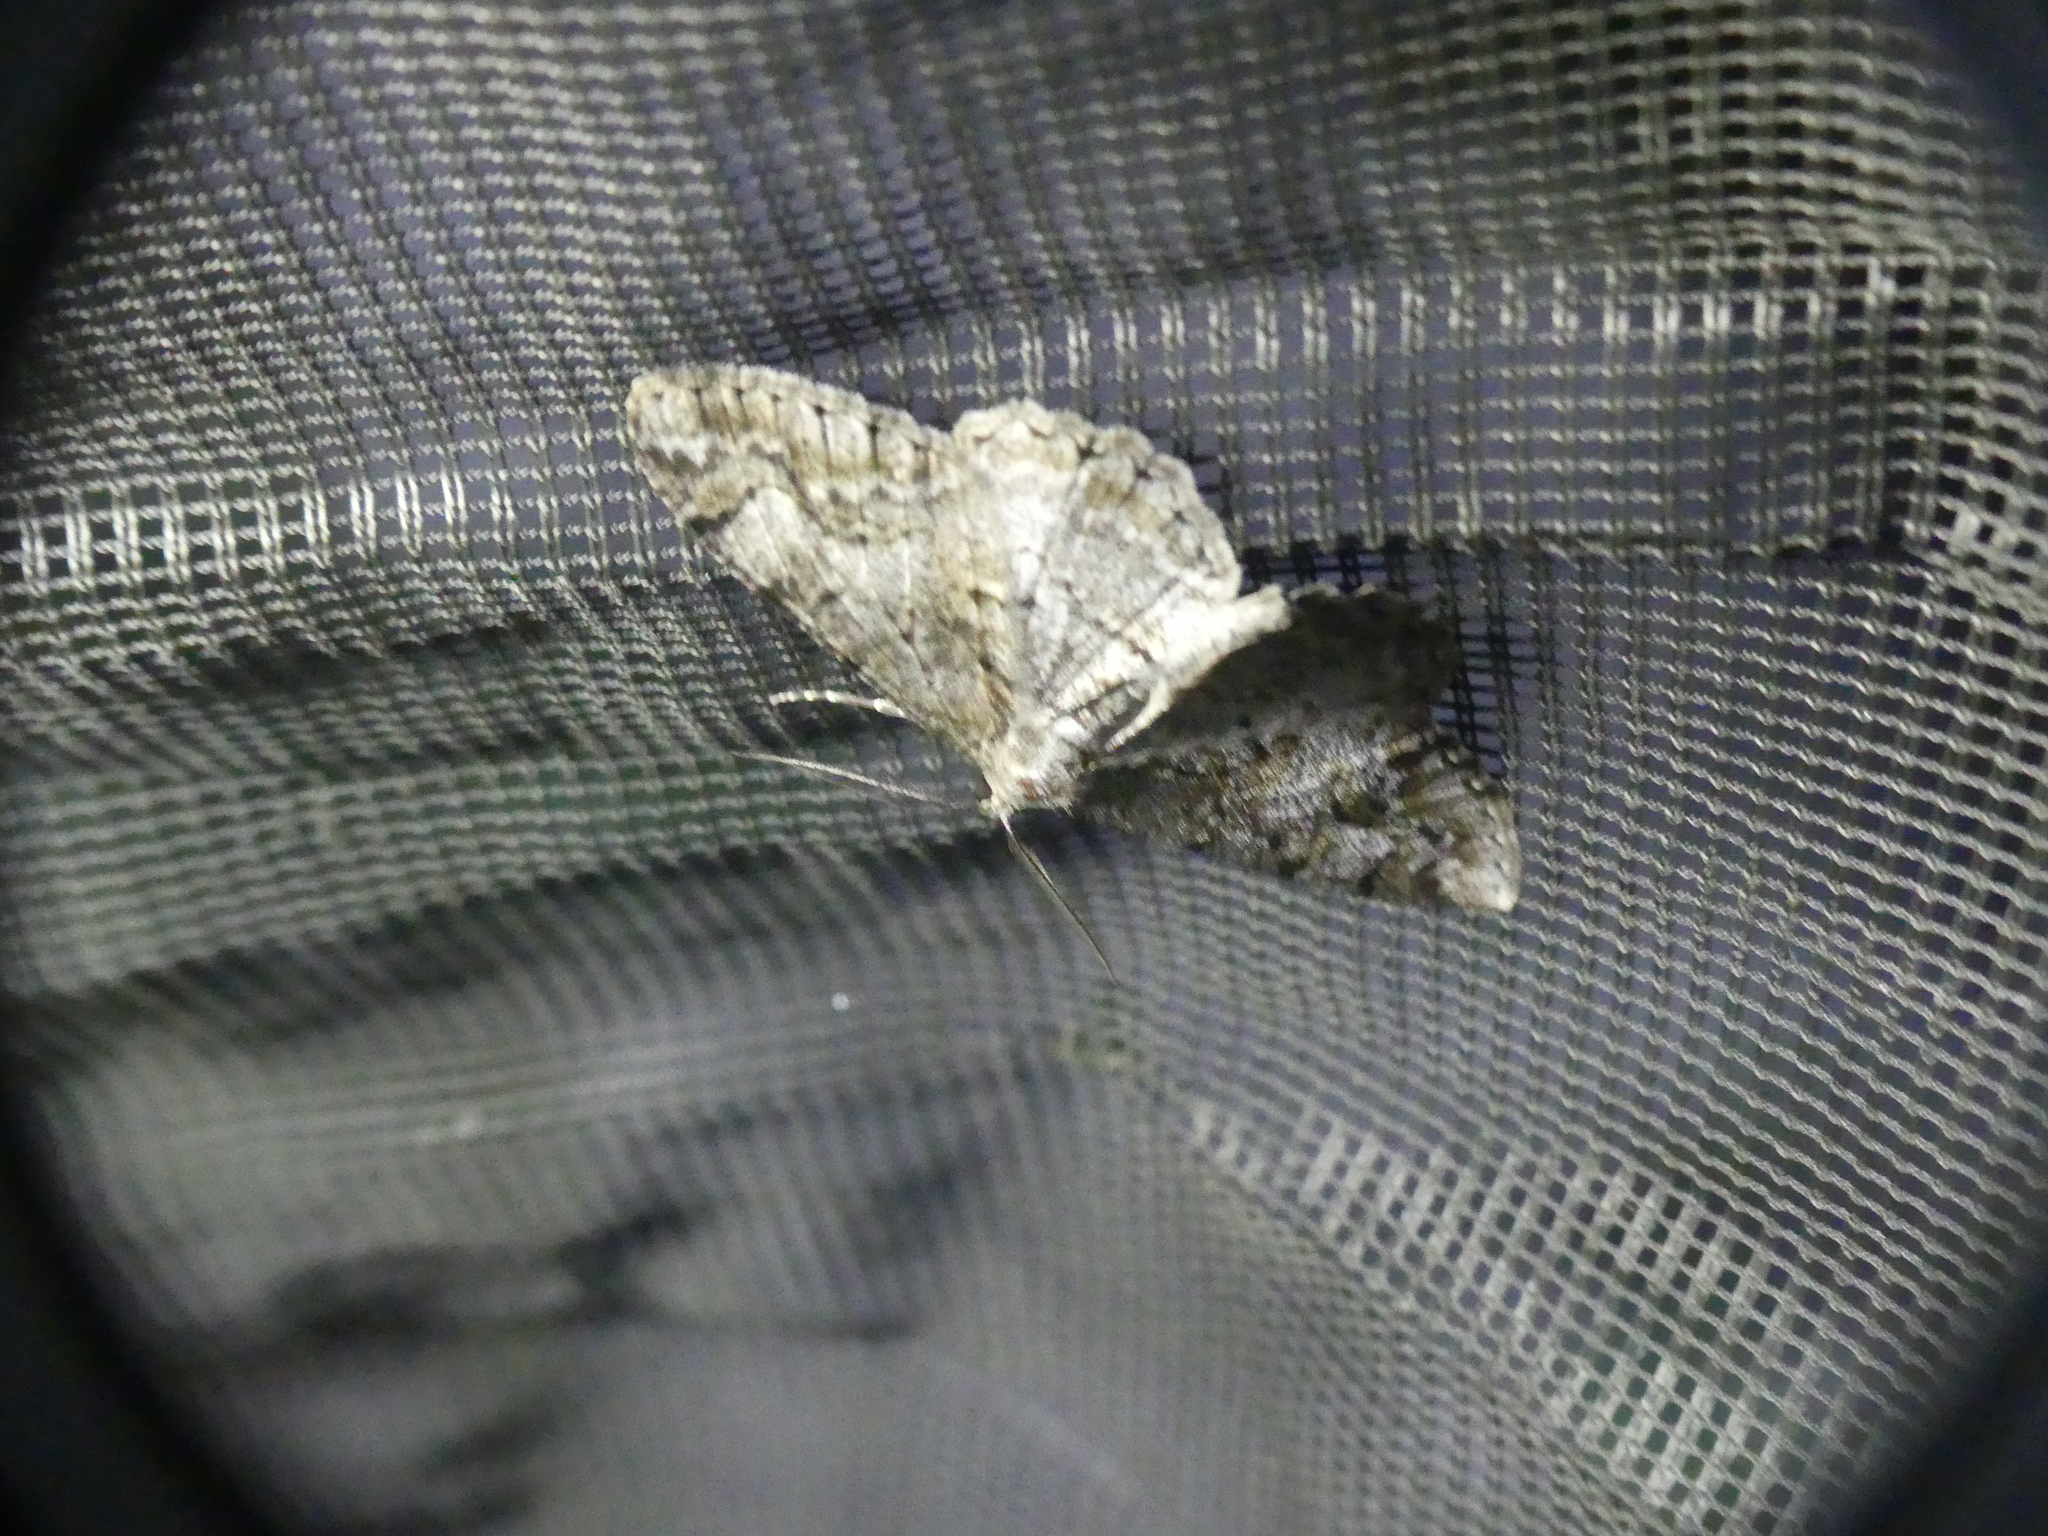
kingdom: Animalia
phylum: Arthropoda
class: Insecta
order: Lepidoptera
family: Geometridae
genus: Alcis
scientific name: Alcis repandata
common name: Mottled beauty
